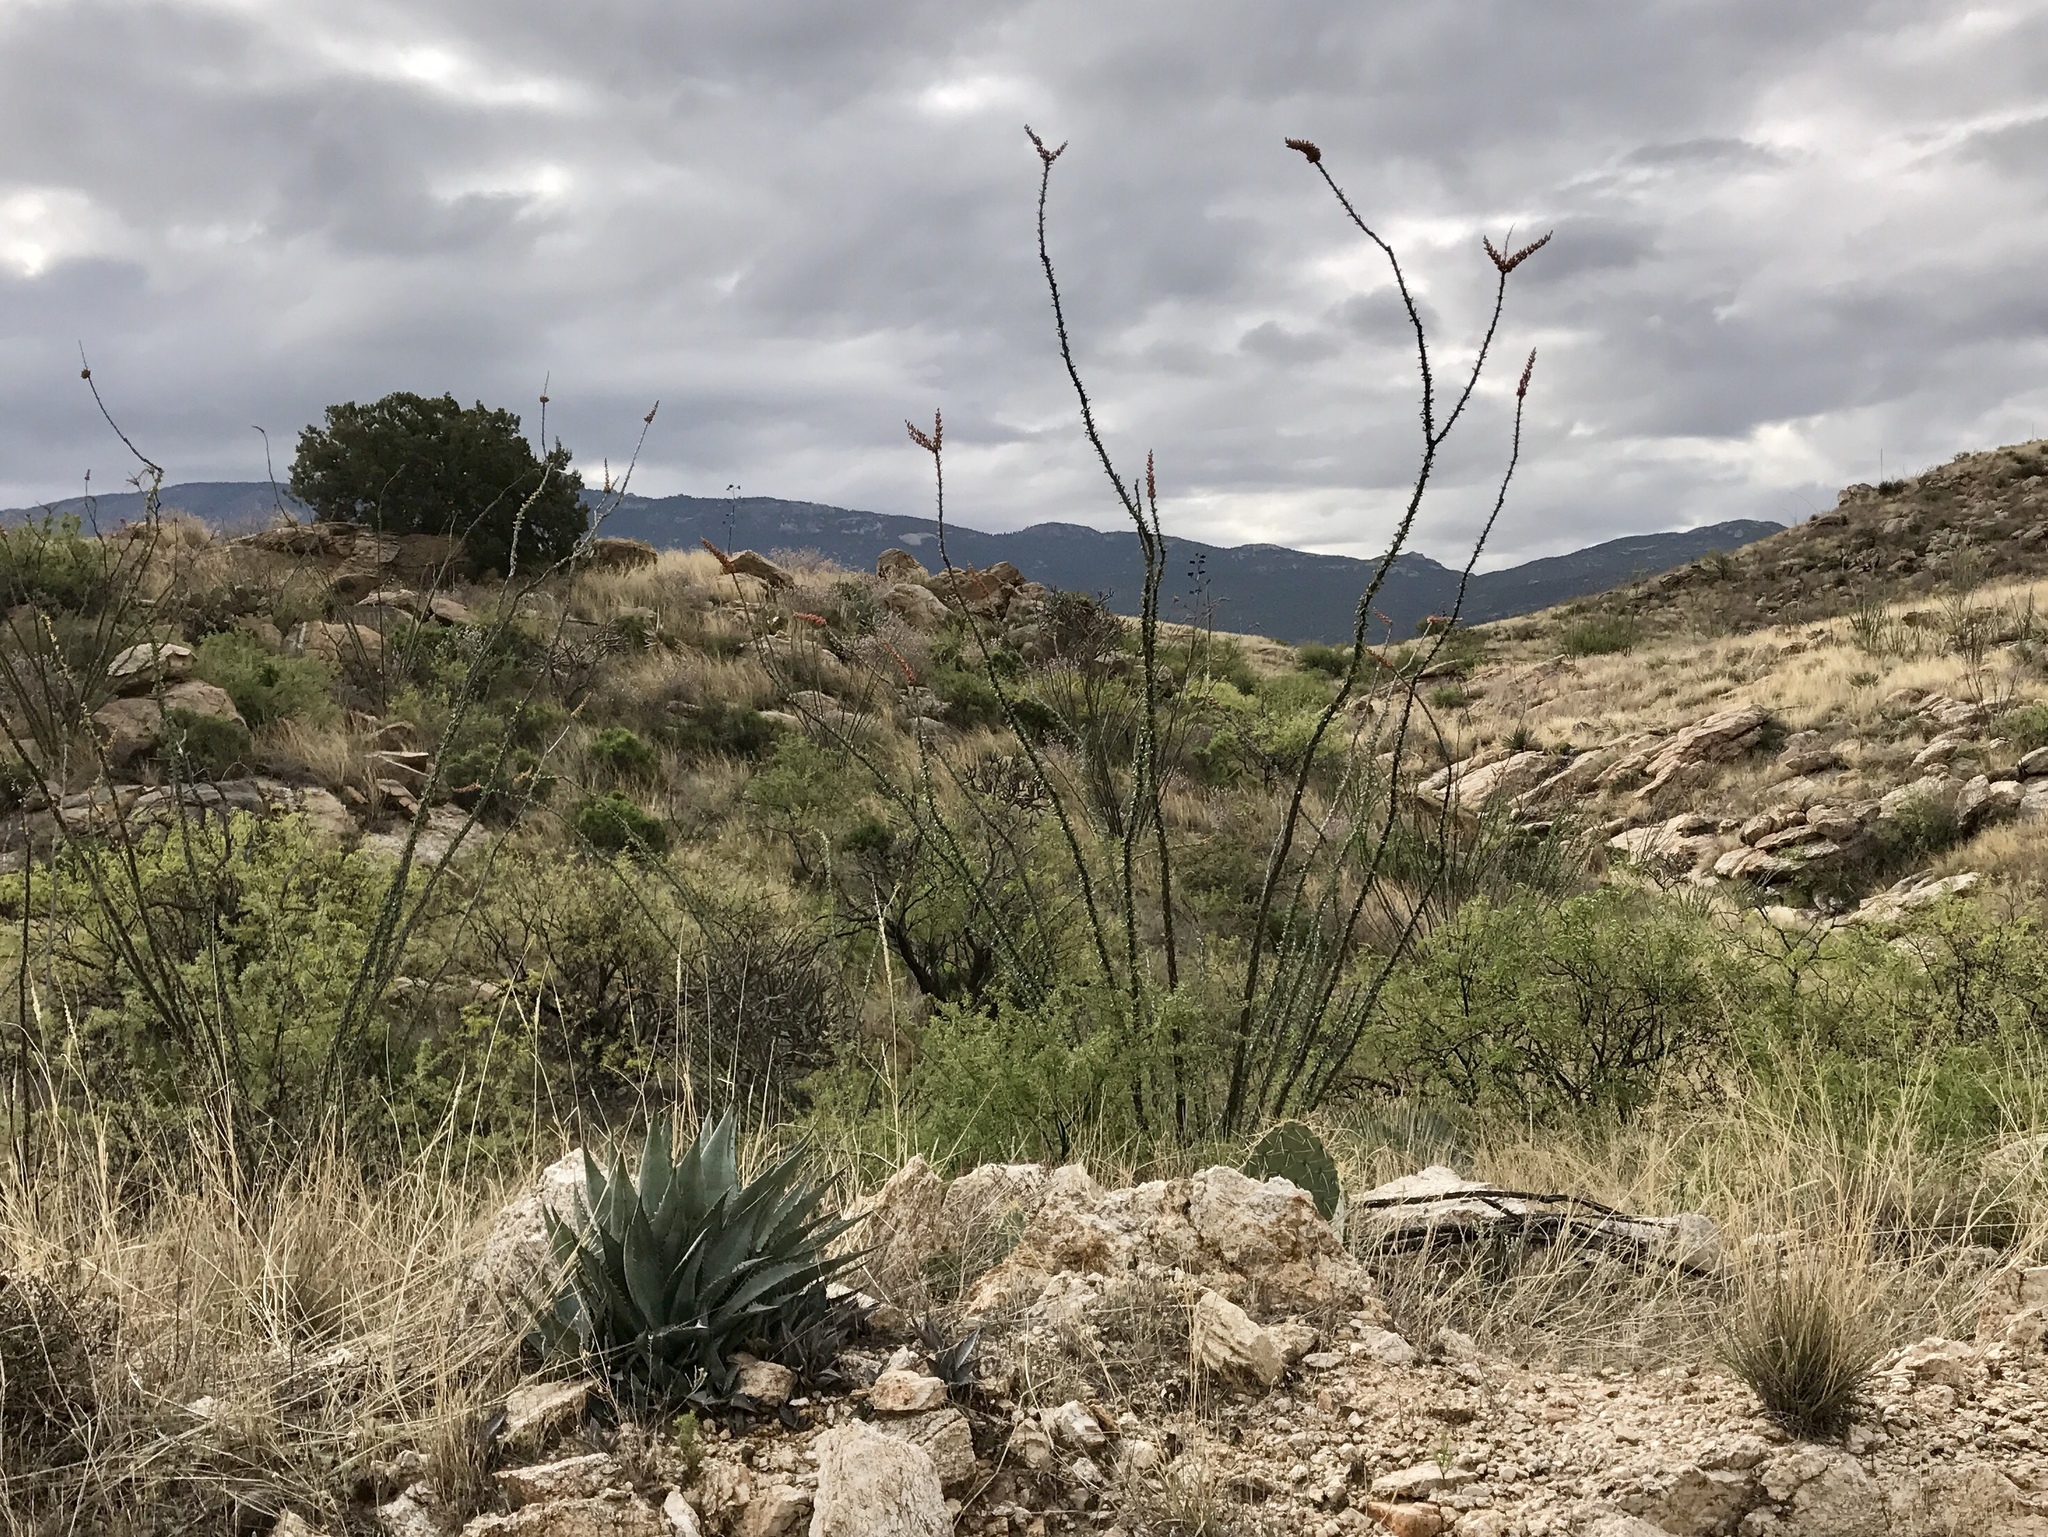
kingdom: Plantae
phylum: Tracheophyta
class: Magnoliopsida
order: Ericales
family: Fouquieriaceae
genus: Fouquieria
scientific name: Fouquieria splendens
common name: Vine-cactus
